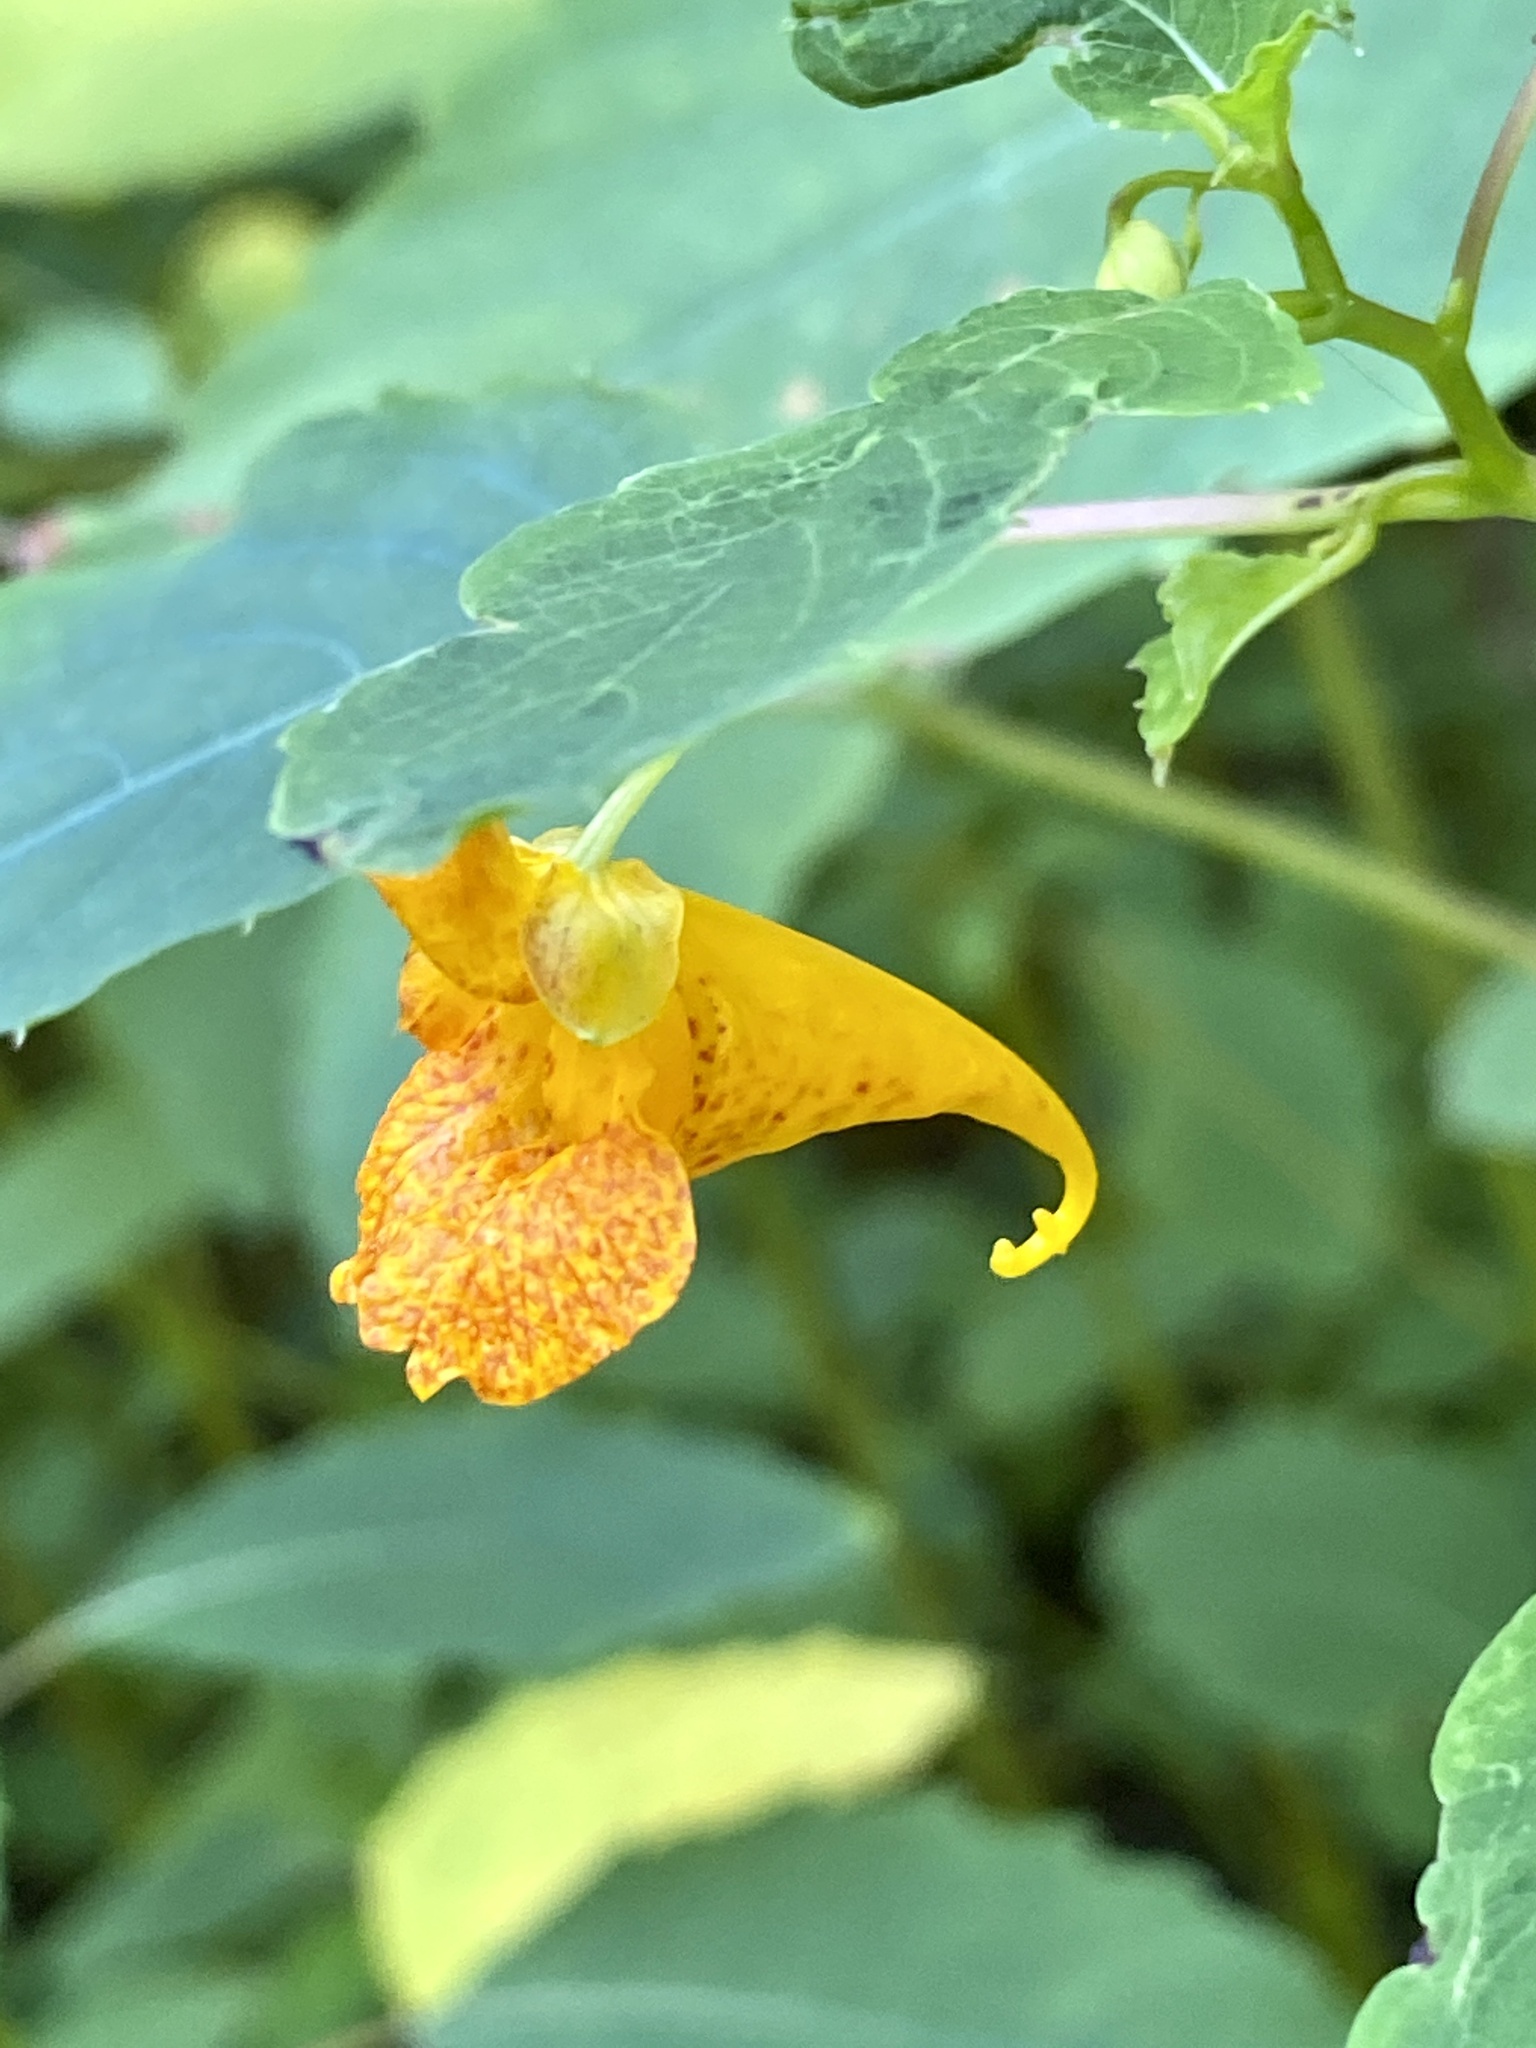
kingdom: Plantae
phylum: Tracheophyta
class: Magnoliopsida
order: Ericales
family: Balsaminaceae
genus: Impatiens
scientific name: Impatiens capensis
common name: Orange balsam
